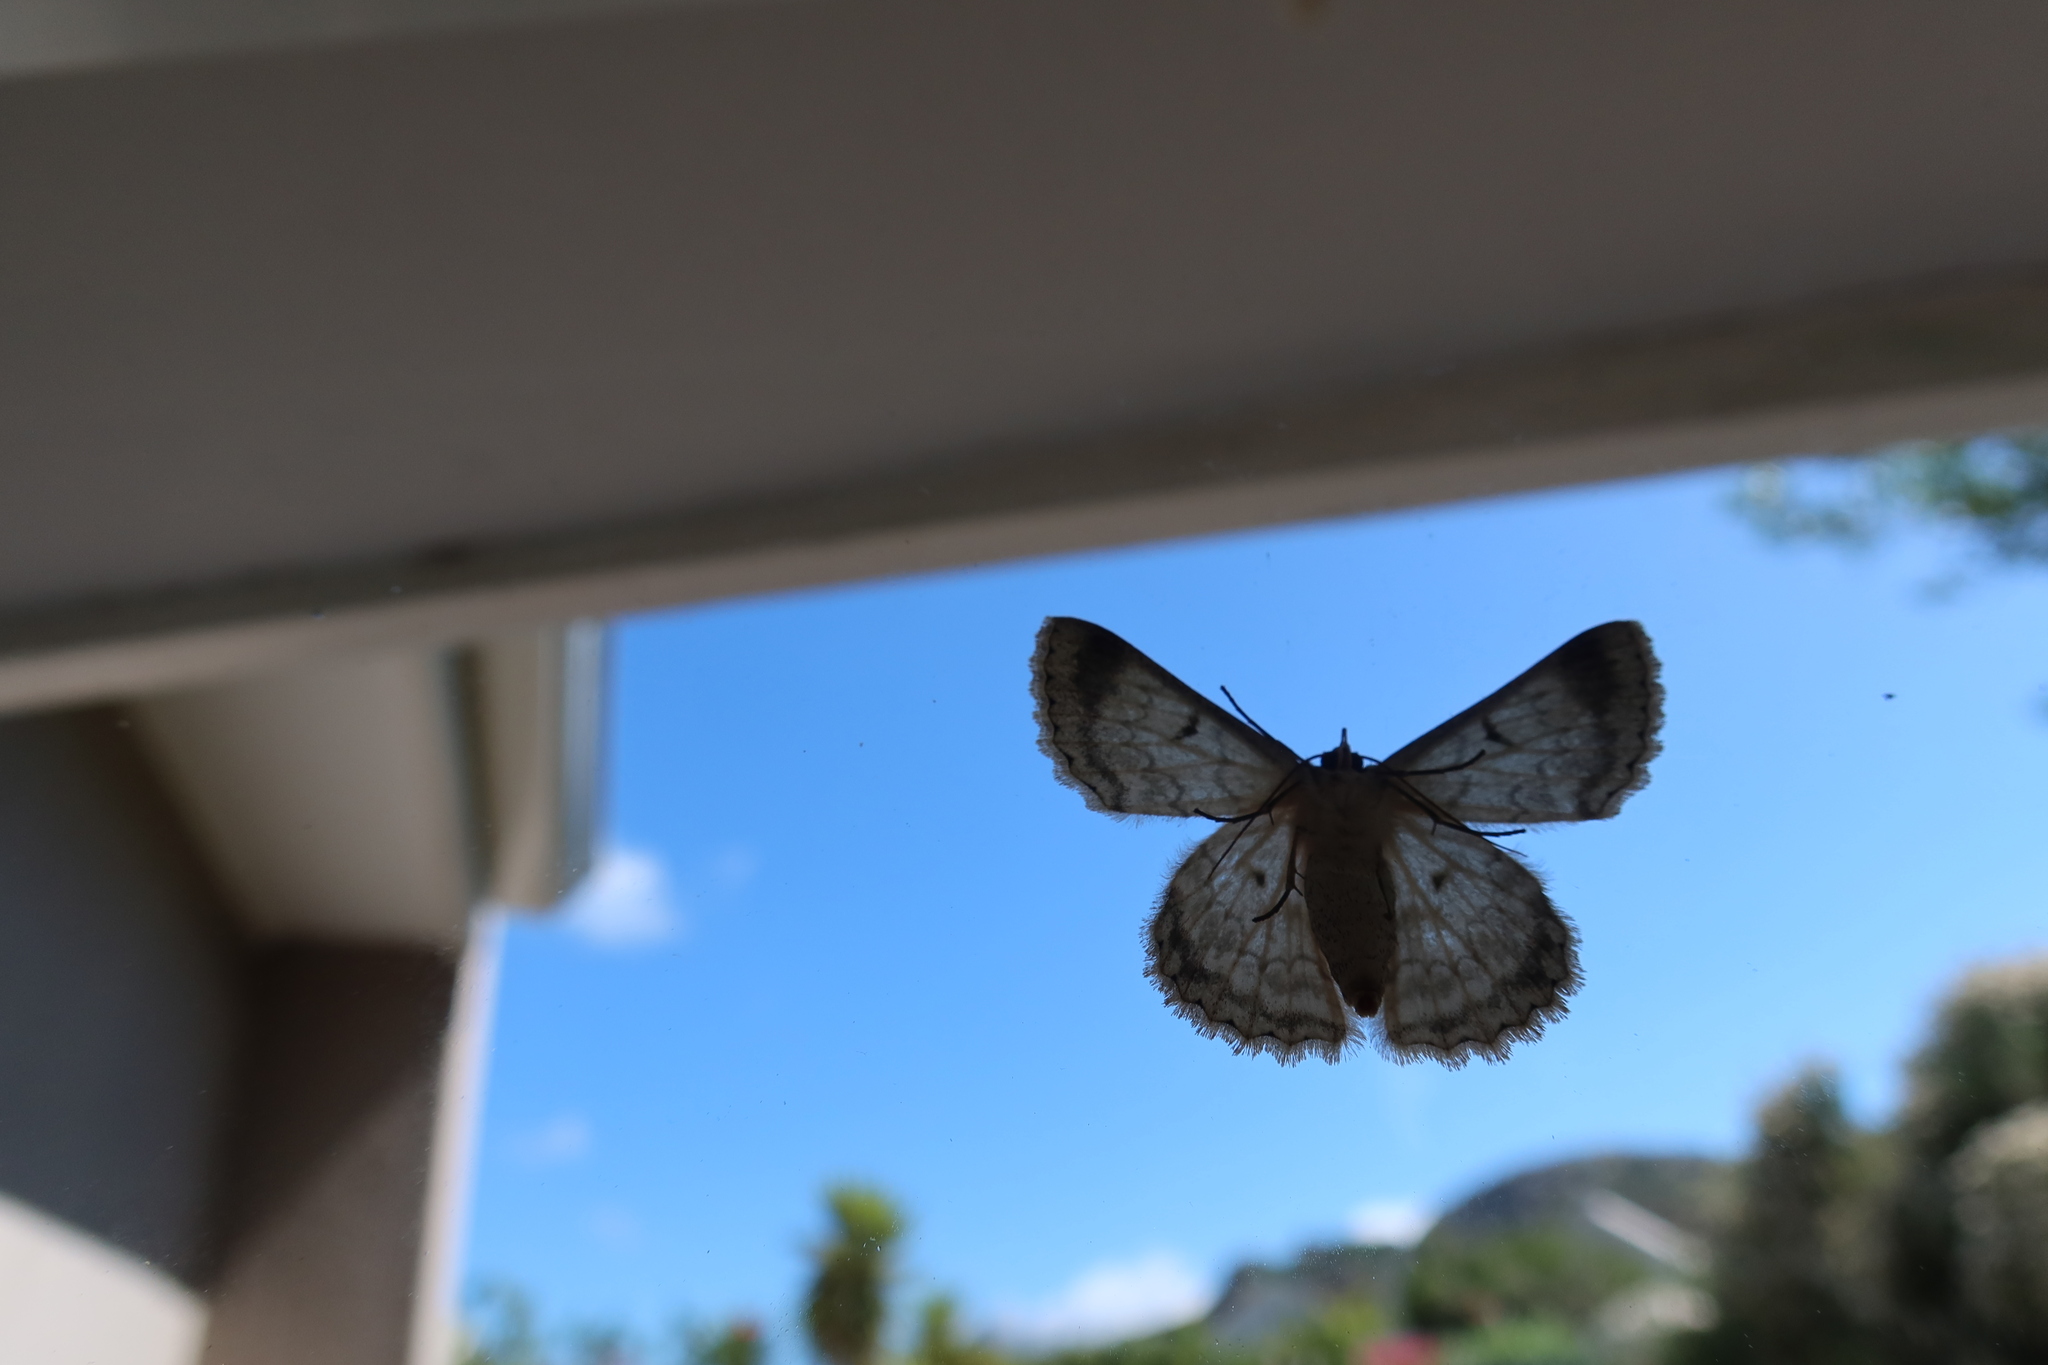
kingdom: Animalia
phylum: Arthropoda
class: Insecta
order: Lepidoptera
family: Geometridae
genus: Pingasa
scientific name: Pingasa abyssiniaria
